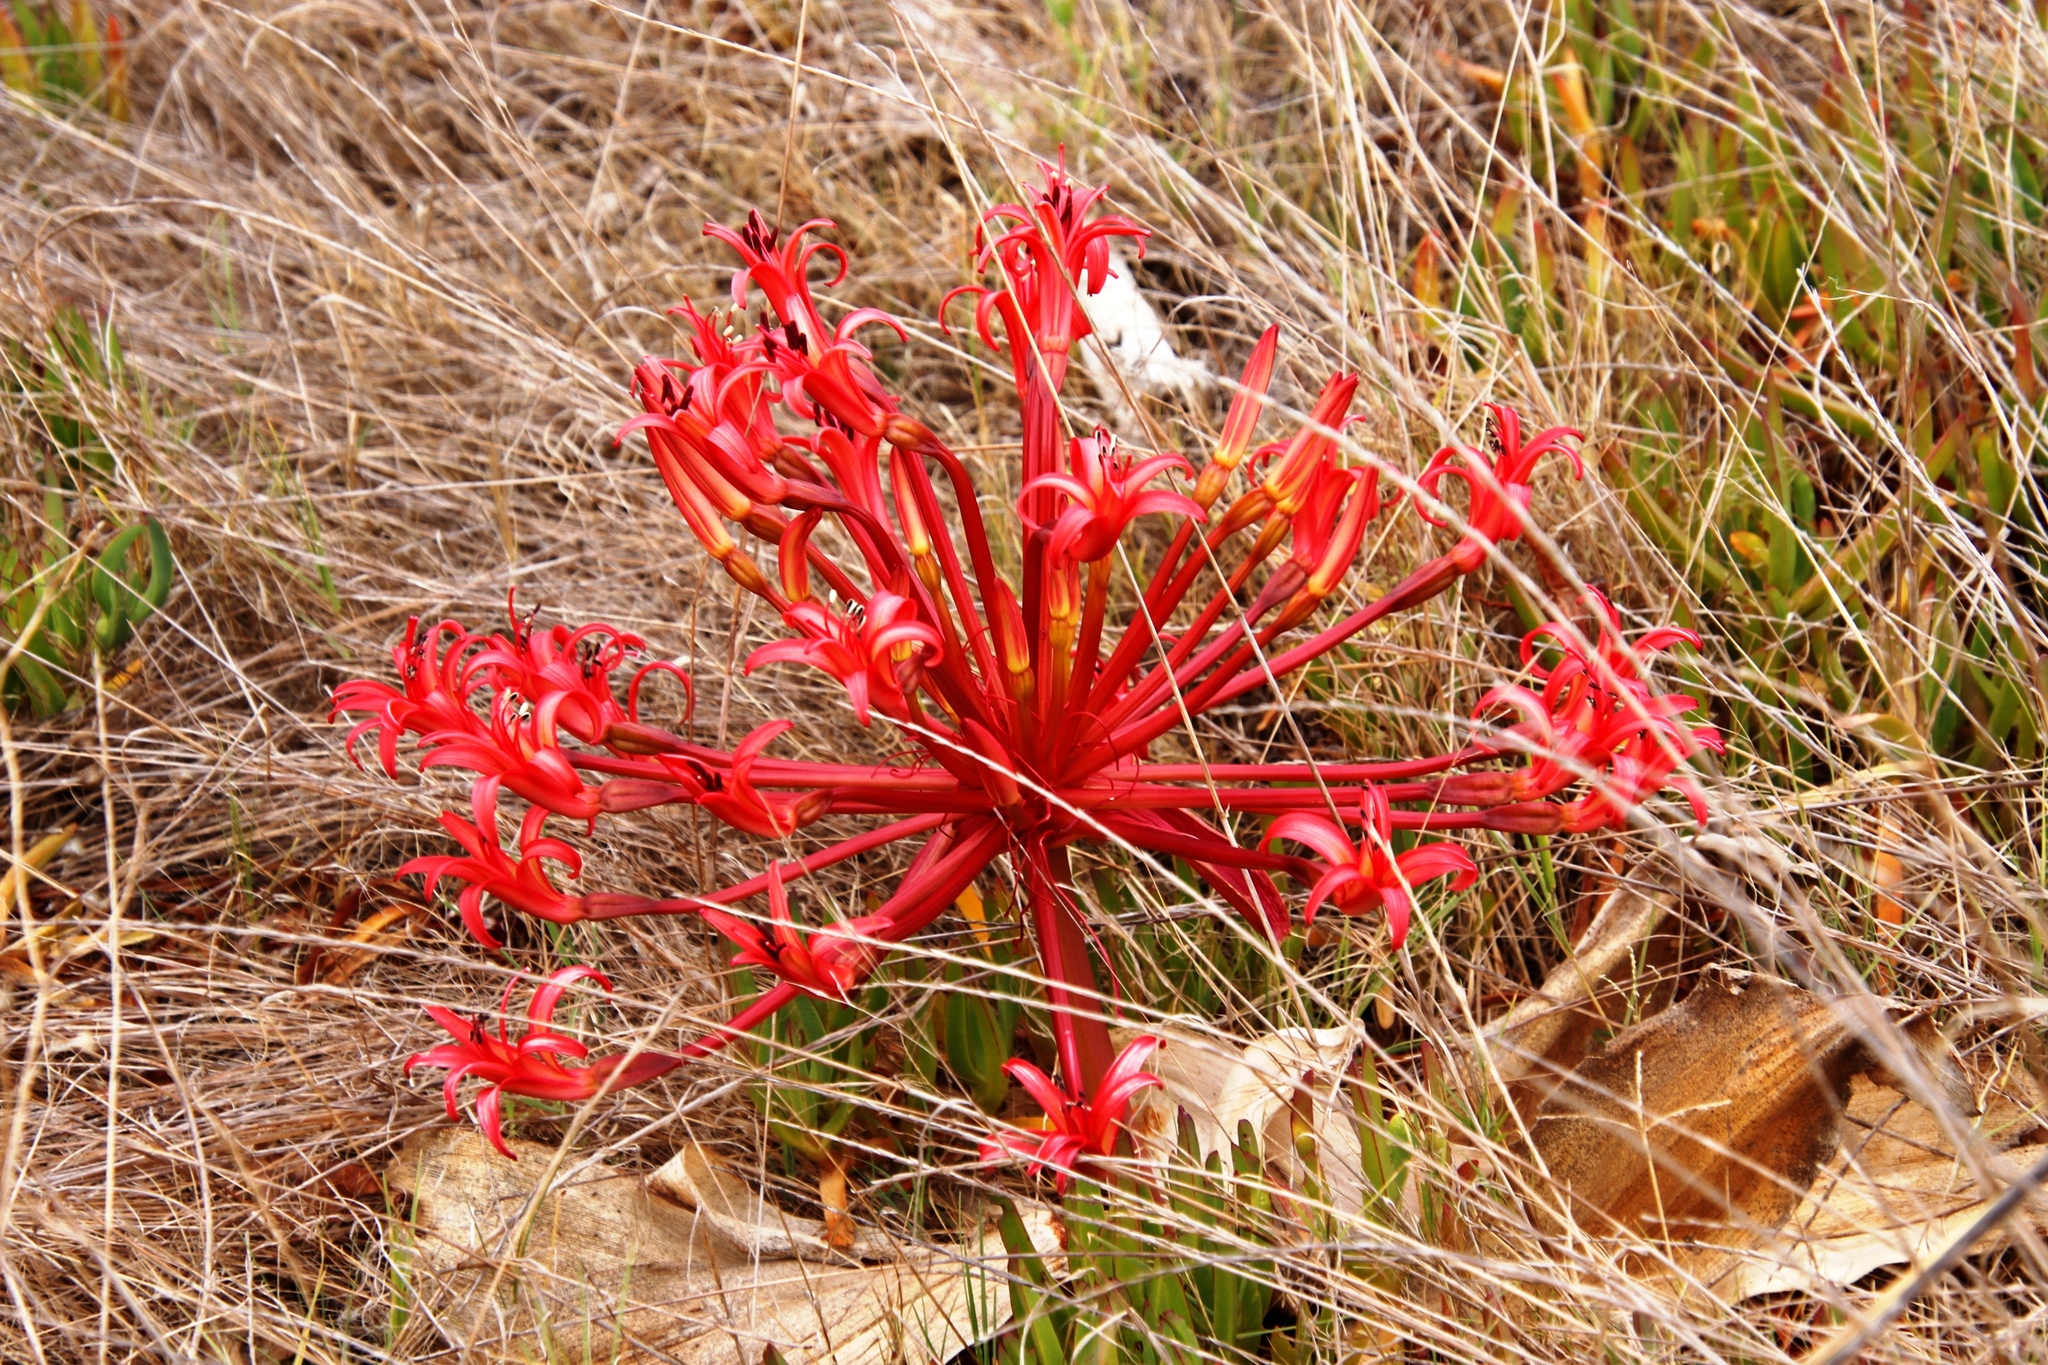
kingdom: Plantae
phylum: Tracheophyta
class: Liliopsida
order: Asparagales
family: Amaryllidaceae
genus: Brunsvigia
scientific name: Brunsvigia orientalis
